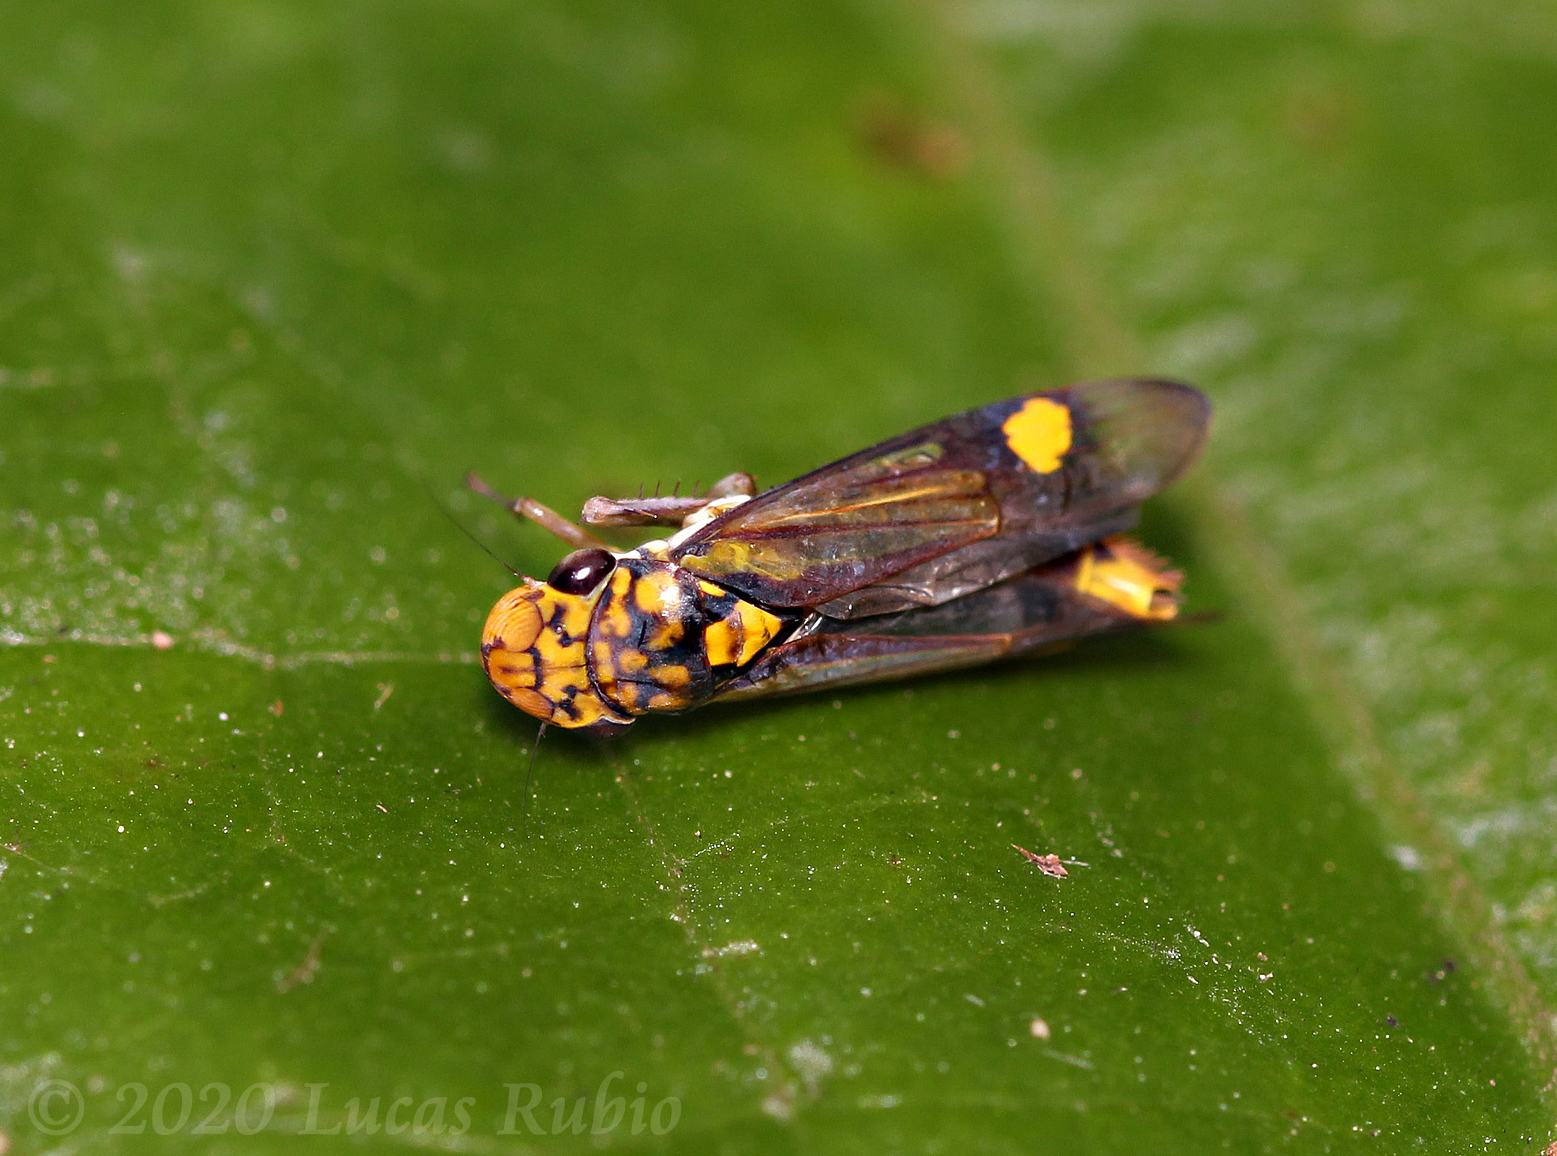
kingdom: Animalia
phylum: Arthropoda
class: Insecta
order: Hemiptera
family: Cicadellidae
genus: Dilobopterus
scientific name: Dilobopterus dispar
